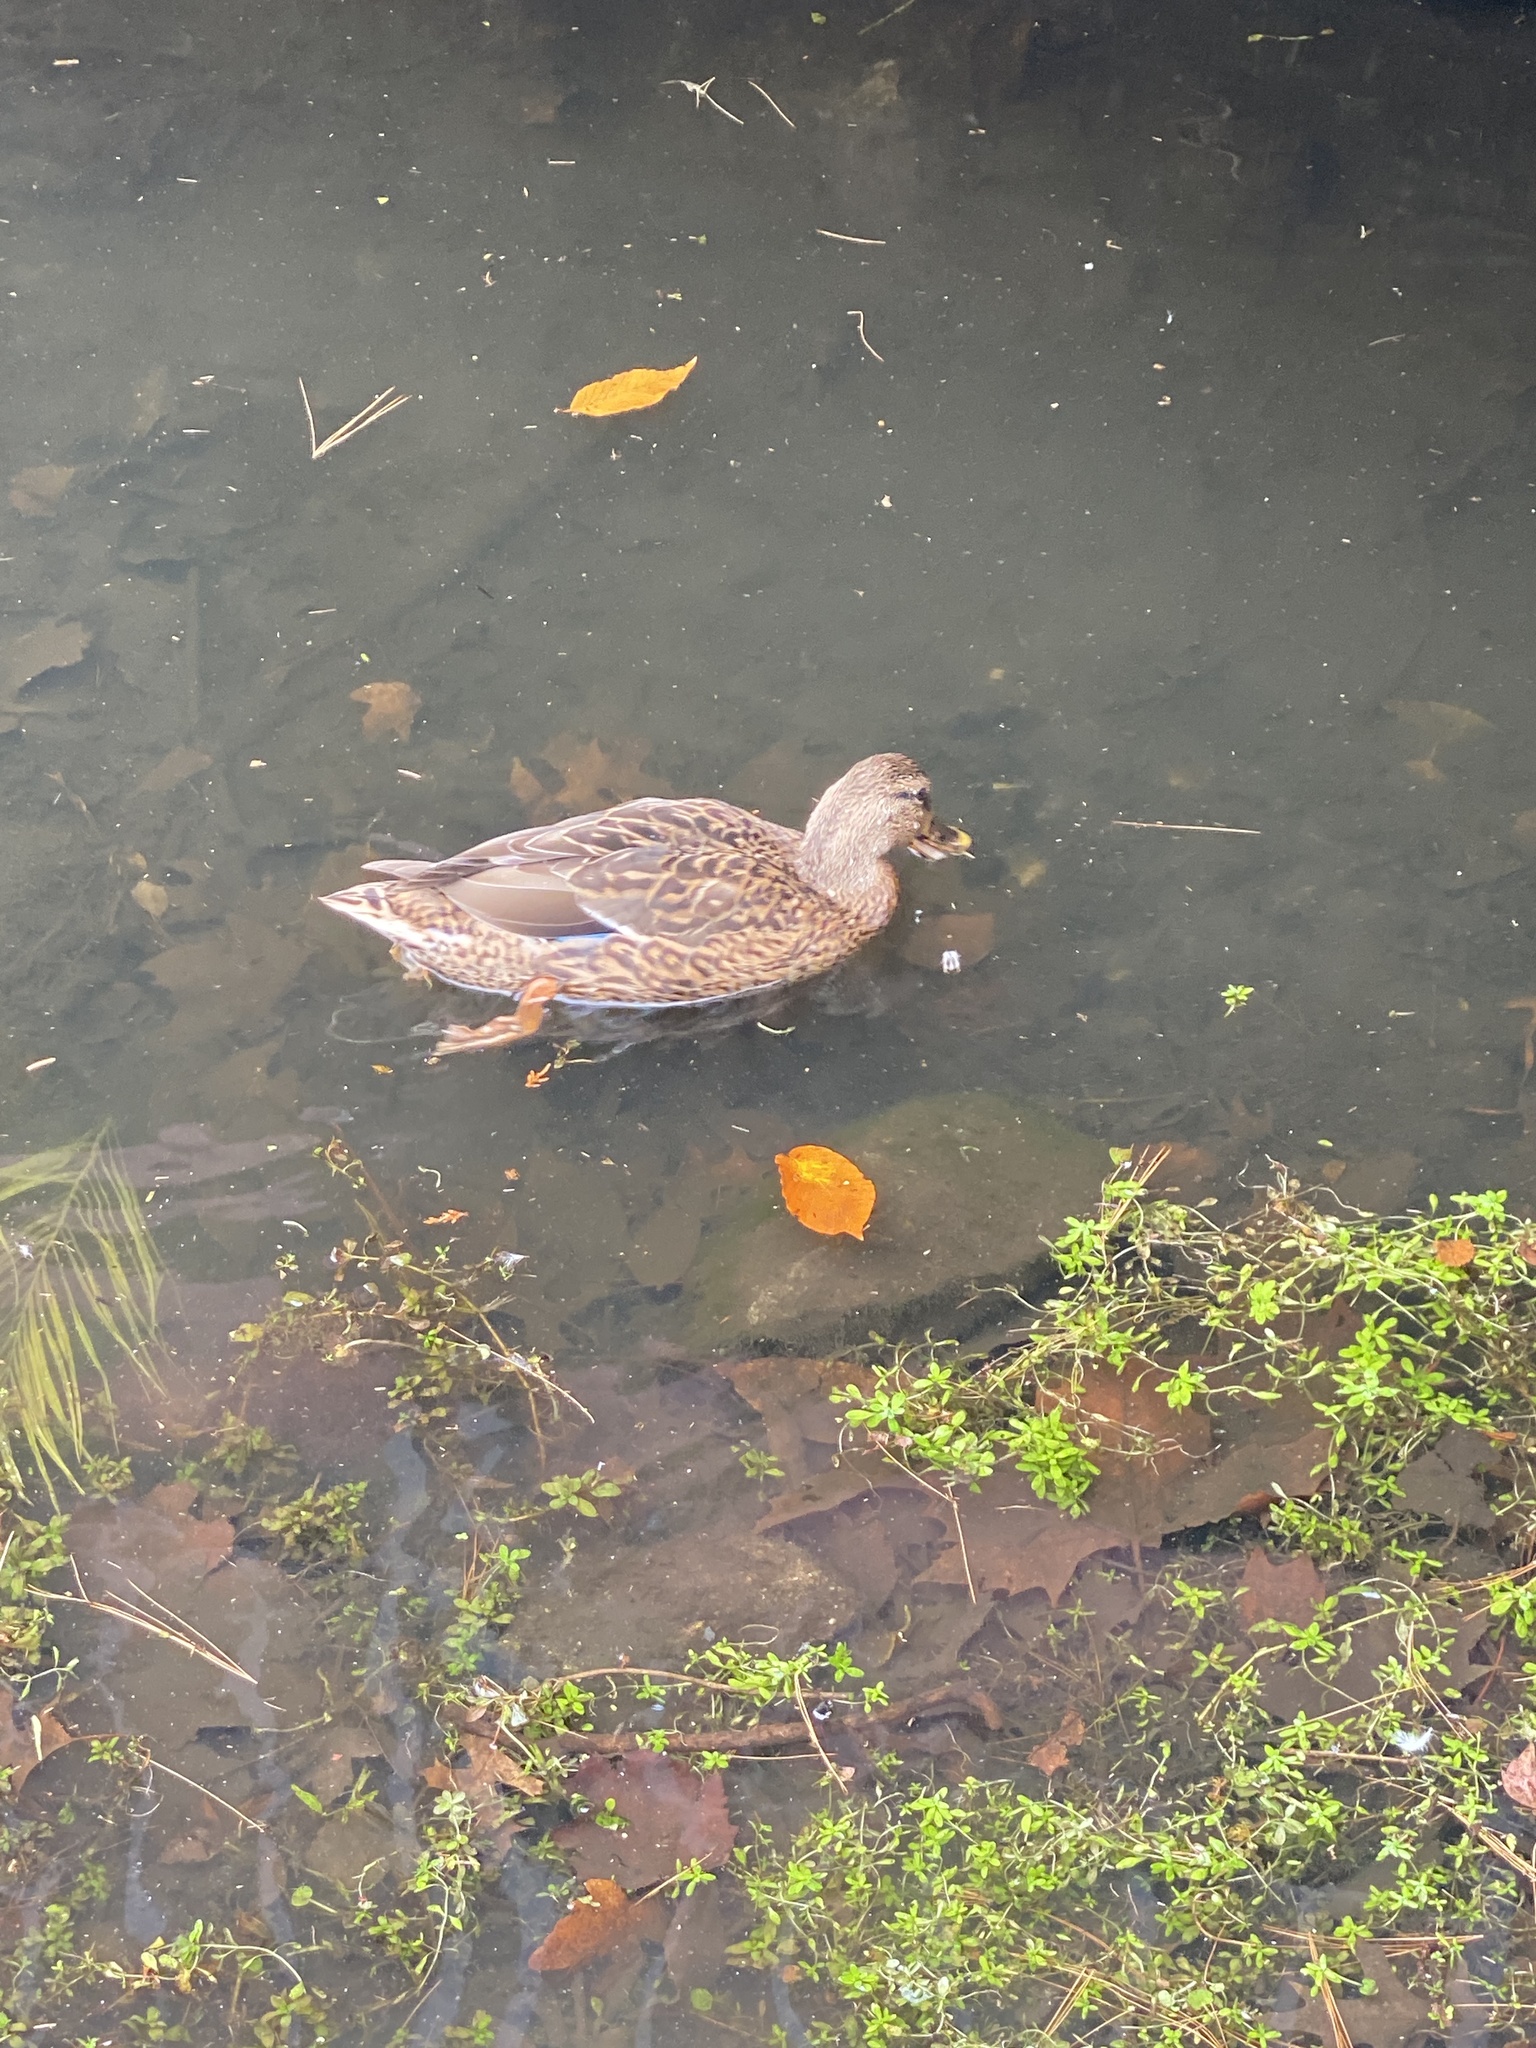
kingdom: Animalia
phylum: Chordata
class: Aves
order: Anseriformes
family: Anatidae
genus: Anas
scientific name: Anas platyrhynchos
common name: Mallard
